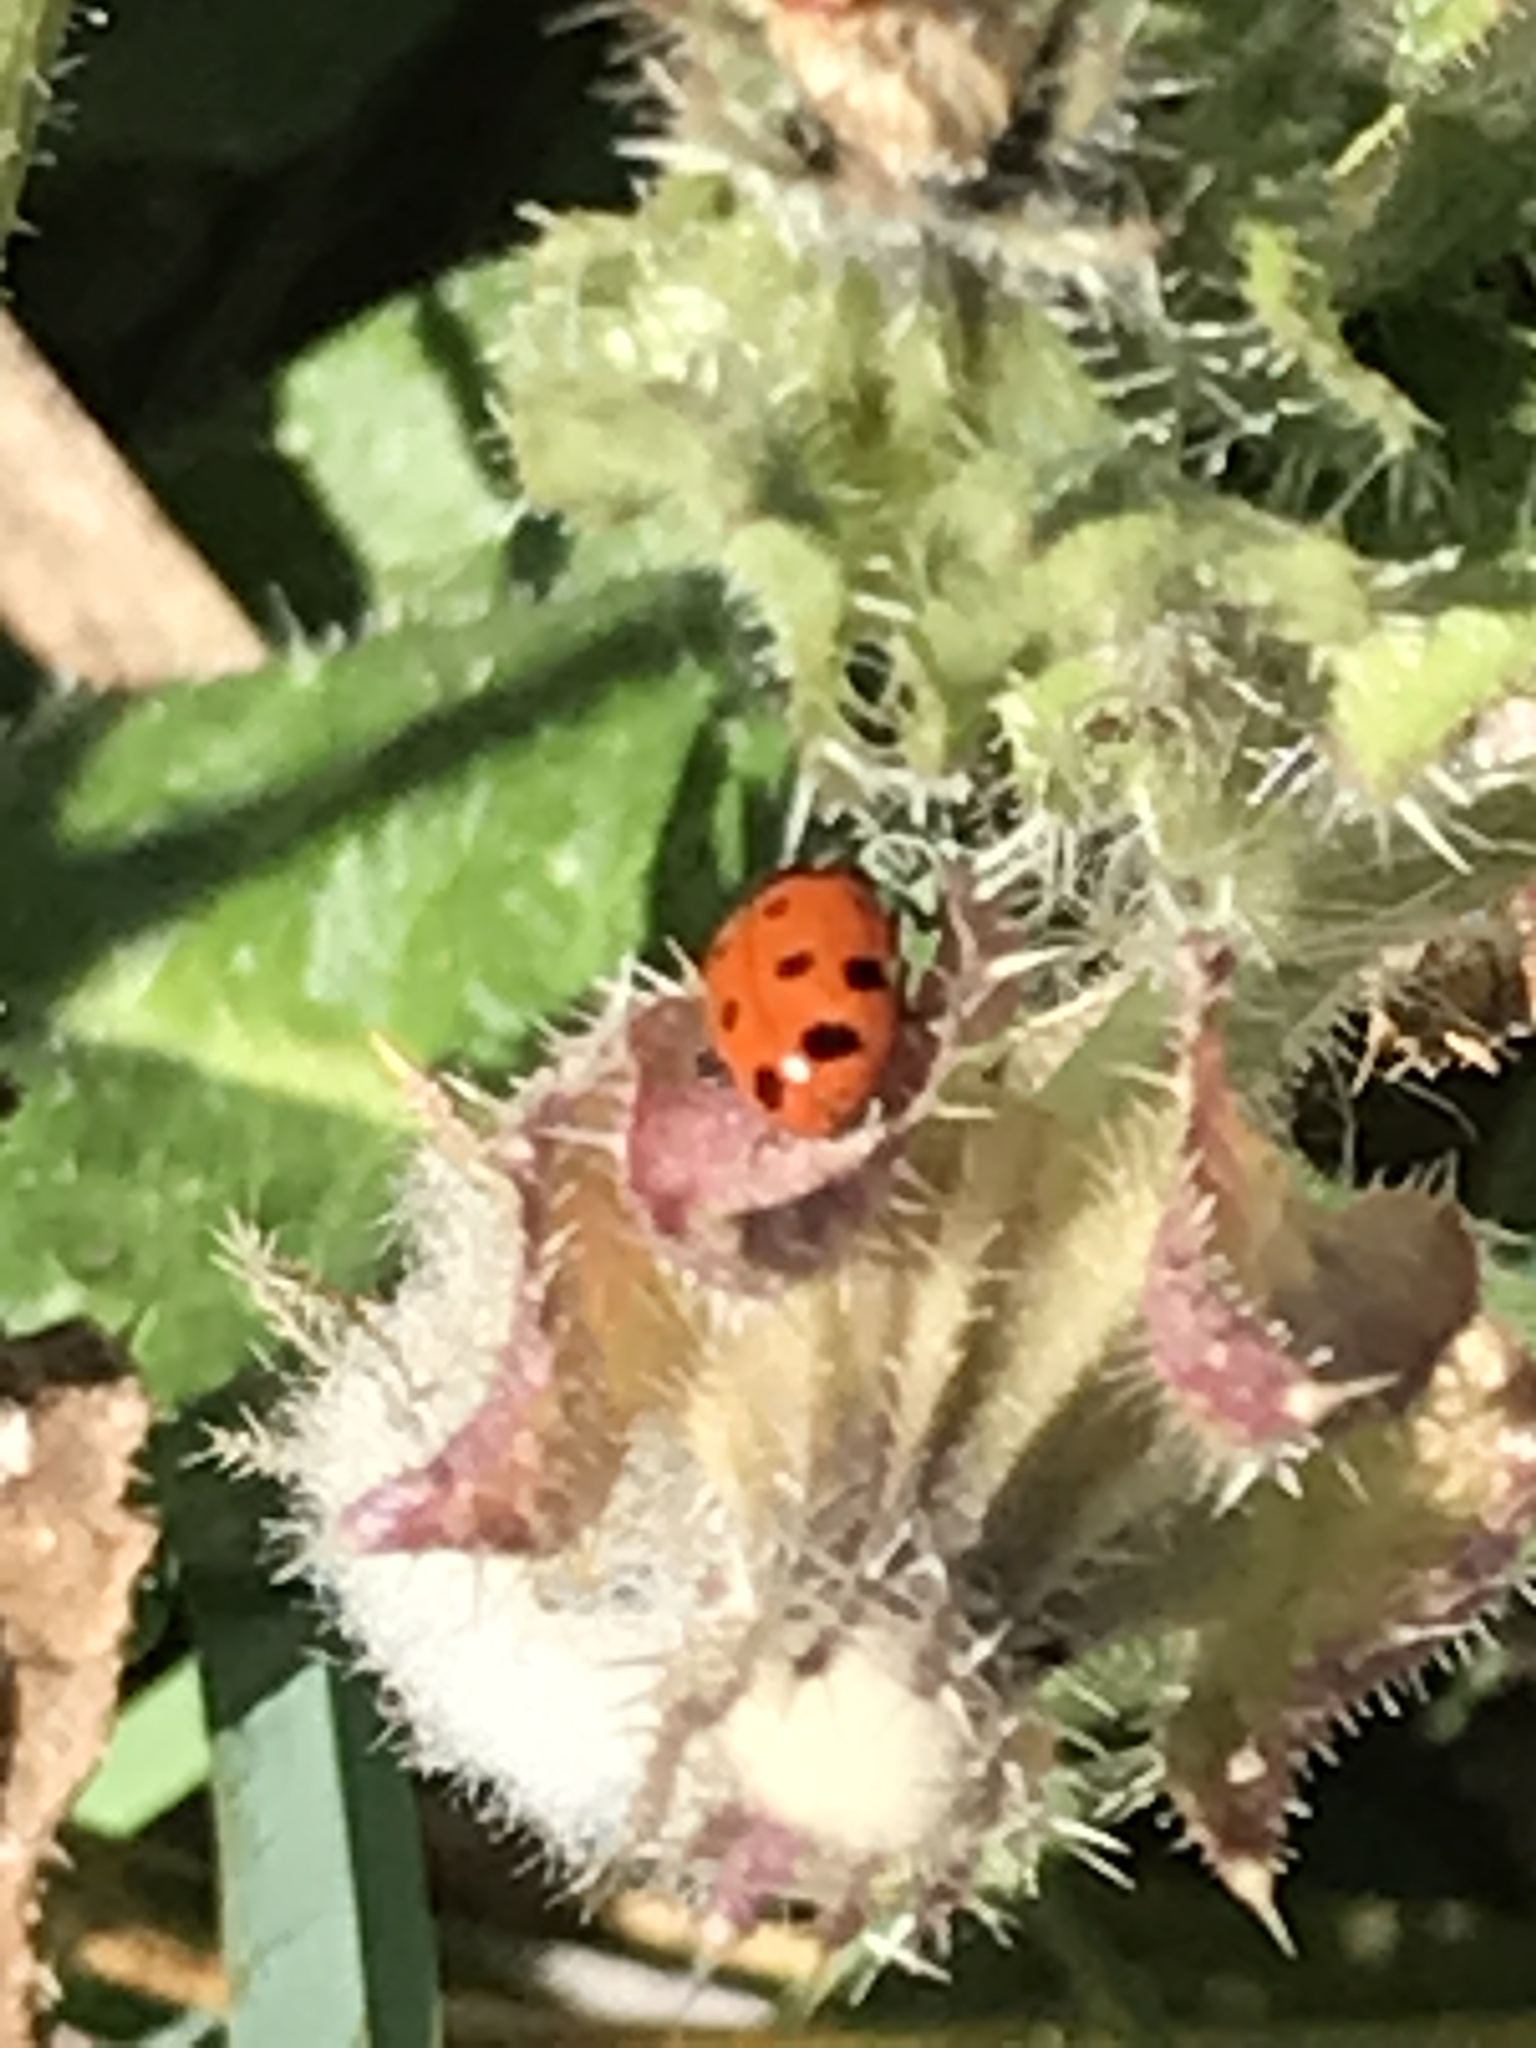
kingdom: Animalia
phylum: Arthropoda
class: Insecta
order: Coleoptera
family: Coccinellidae
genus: Hippodamia
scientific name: Hippodamia convergens
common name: Convergent lady beetle
